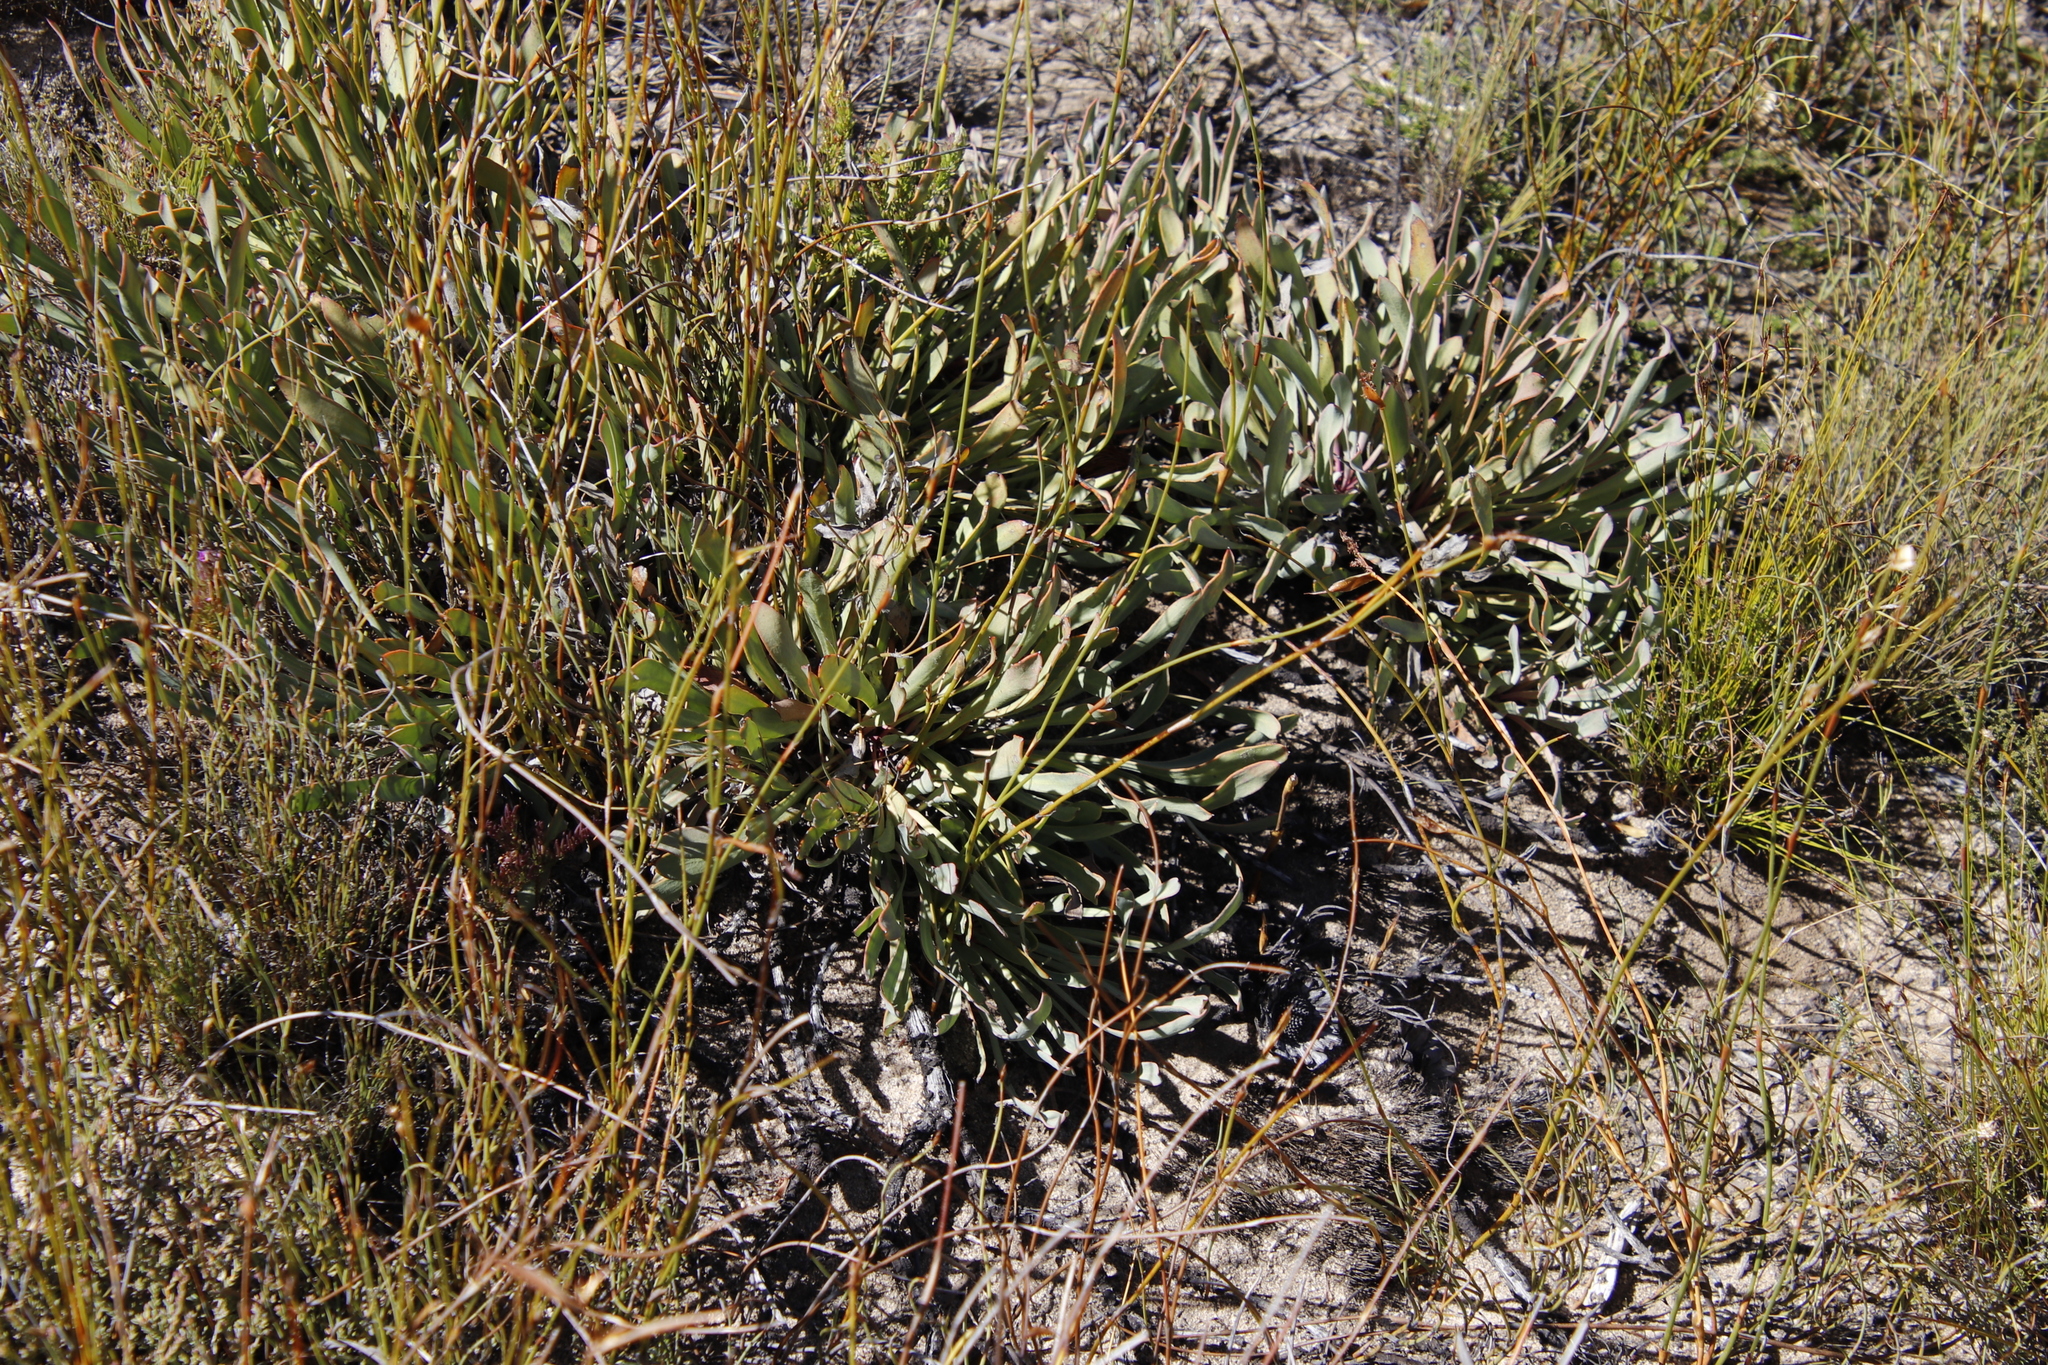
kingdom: Plantae
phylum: Tracheophyta
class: Magnoliopsida
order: Proteales
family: Proteaceae
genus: Protea
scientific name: Protea laevis
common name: Smooth-leaf sugarbush
